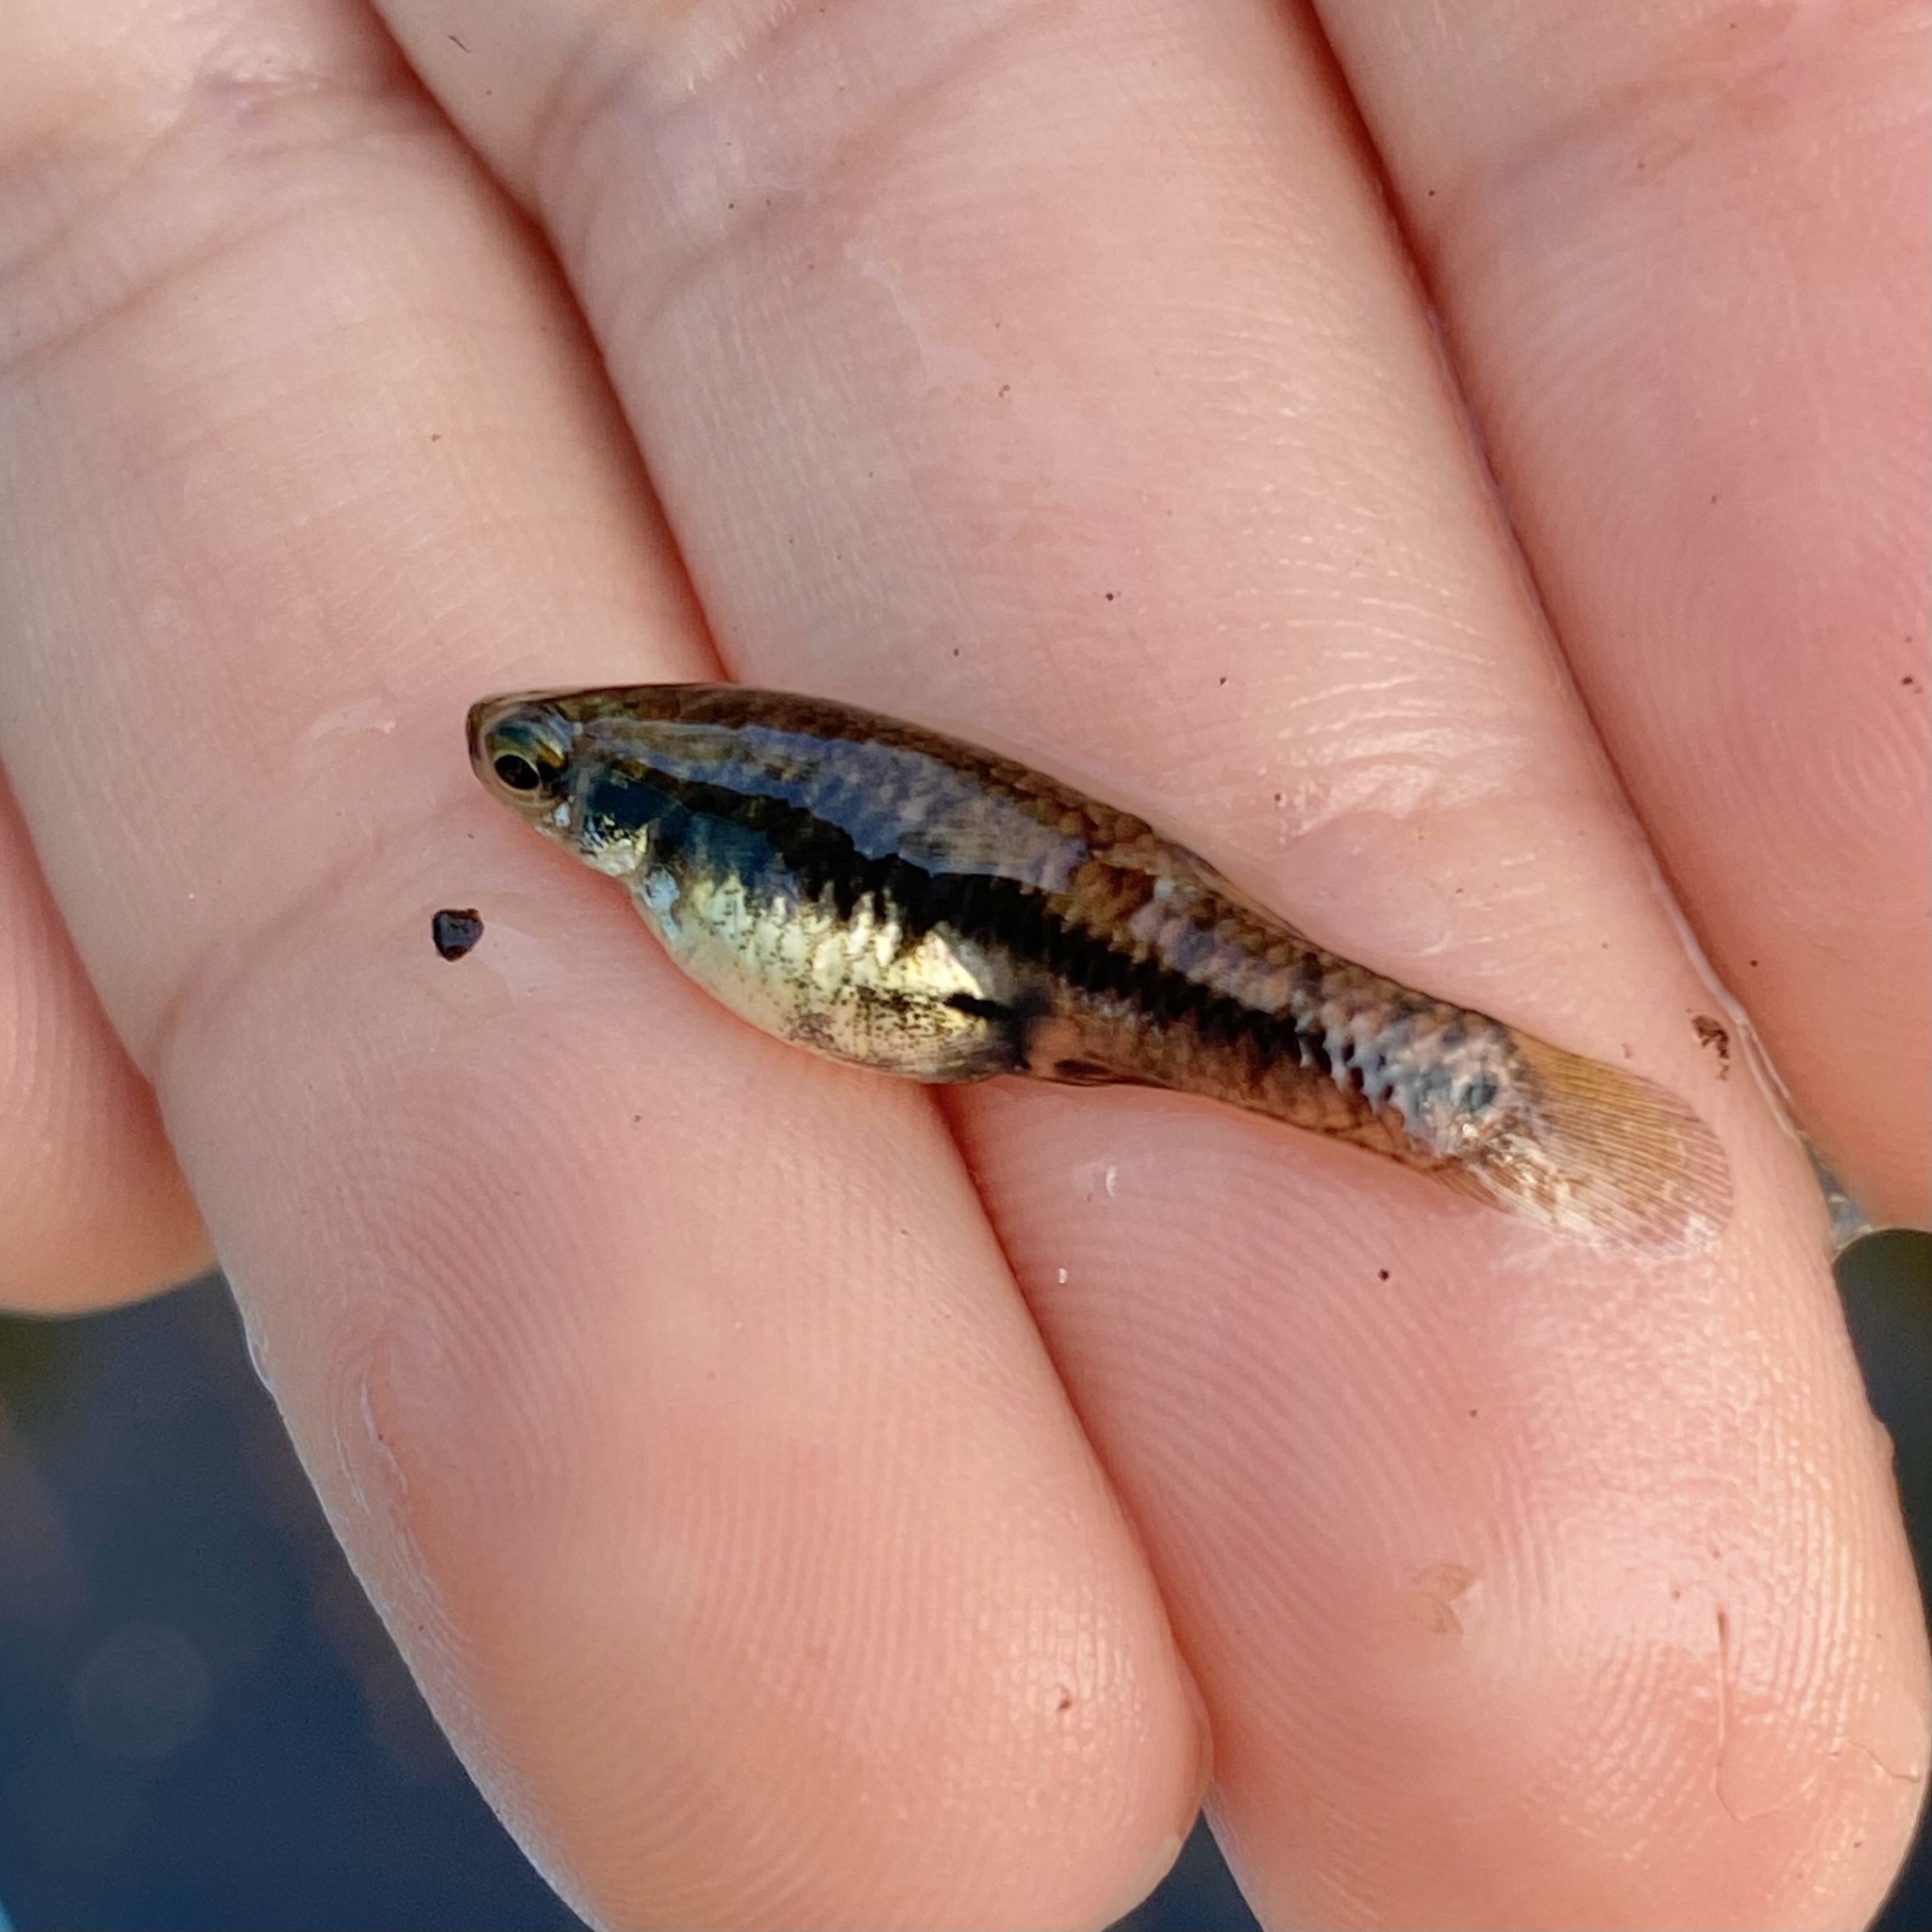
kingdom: Animalia
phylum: Chordata
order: Cyprinodontiformes
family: Poeciliidae
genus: Heterandria
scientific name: Heterandria formosa
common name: Least killifish
